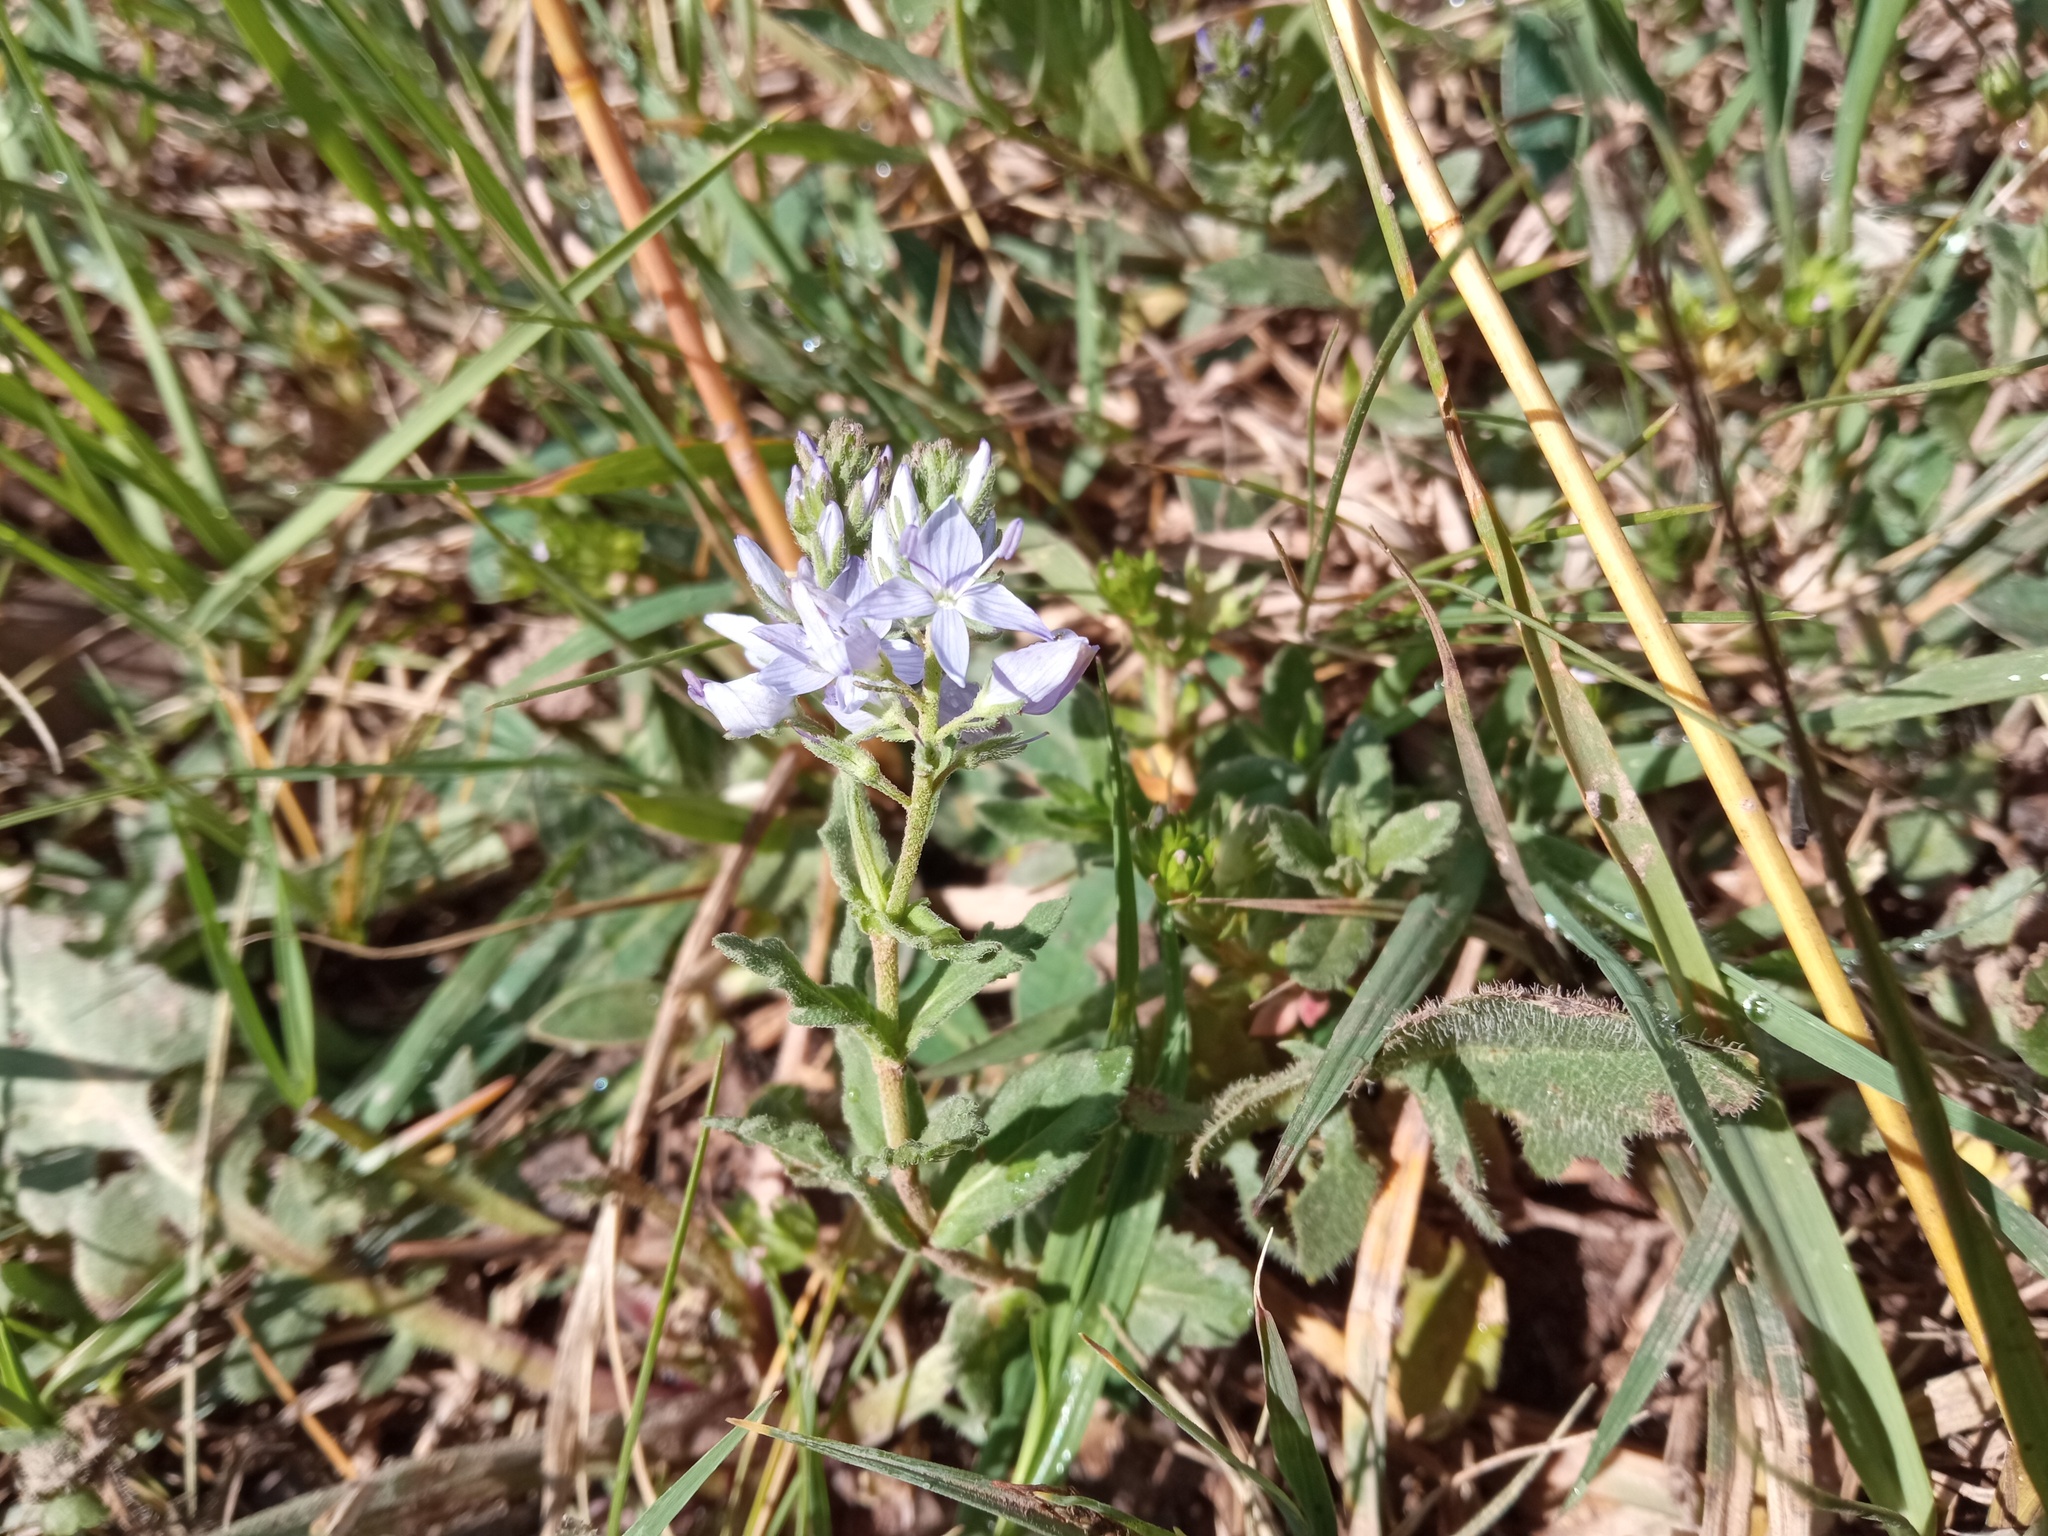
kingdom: Plantae
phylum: Tracheophyta
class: Magnoliopsida
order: Lamiales
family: Plantaginaceae
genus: Veronica
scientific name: Veronica orsiniana
